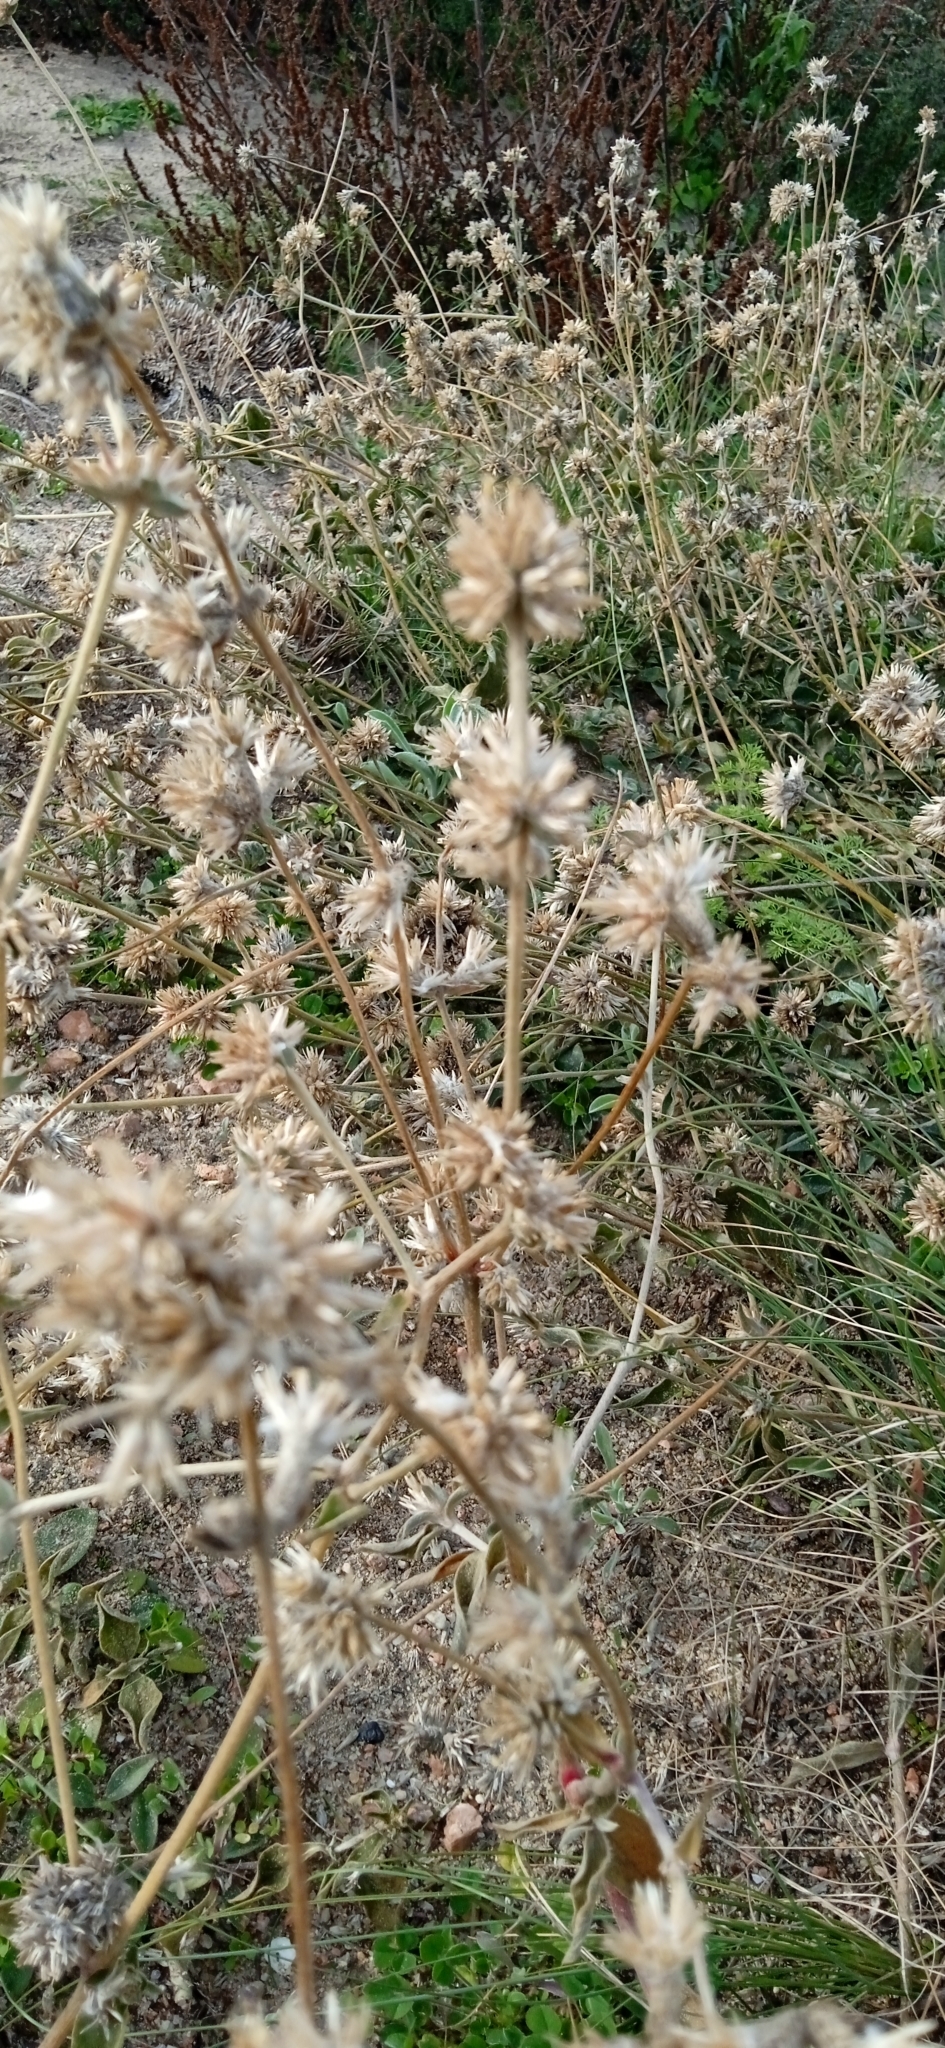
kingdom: Plantae
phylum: Tracheophyta
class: Magnoliopsida
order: Caryophyllales
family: Amaranthaceae
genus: Gomphrena
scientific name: Gomphrena perennis
